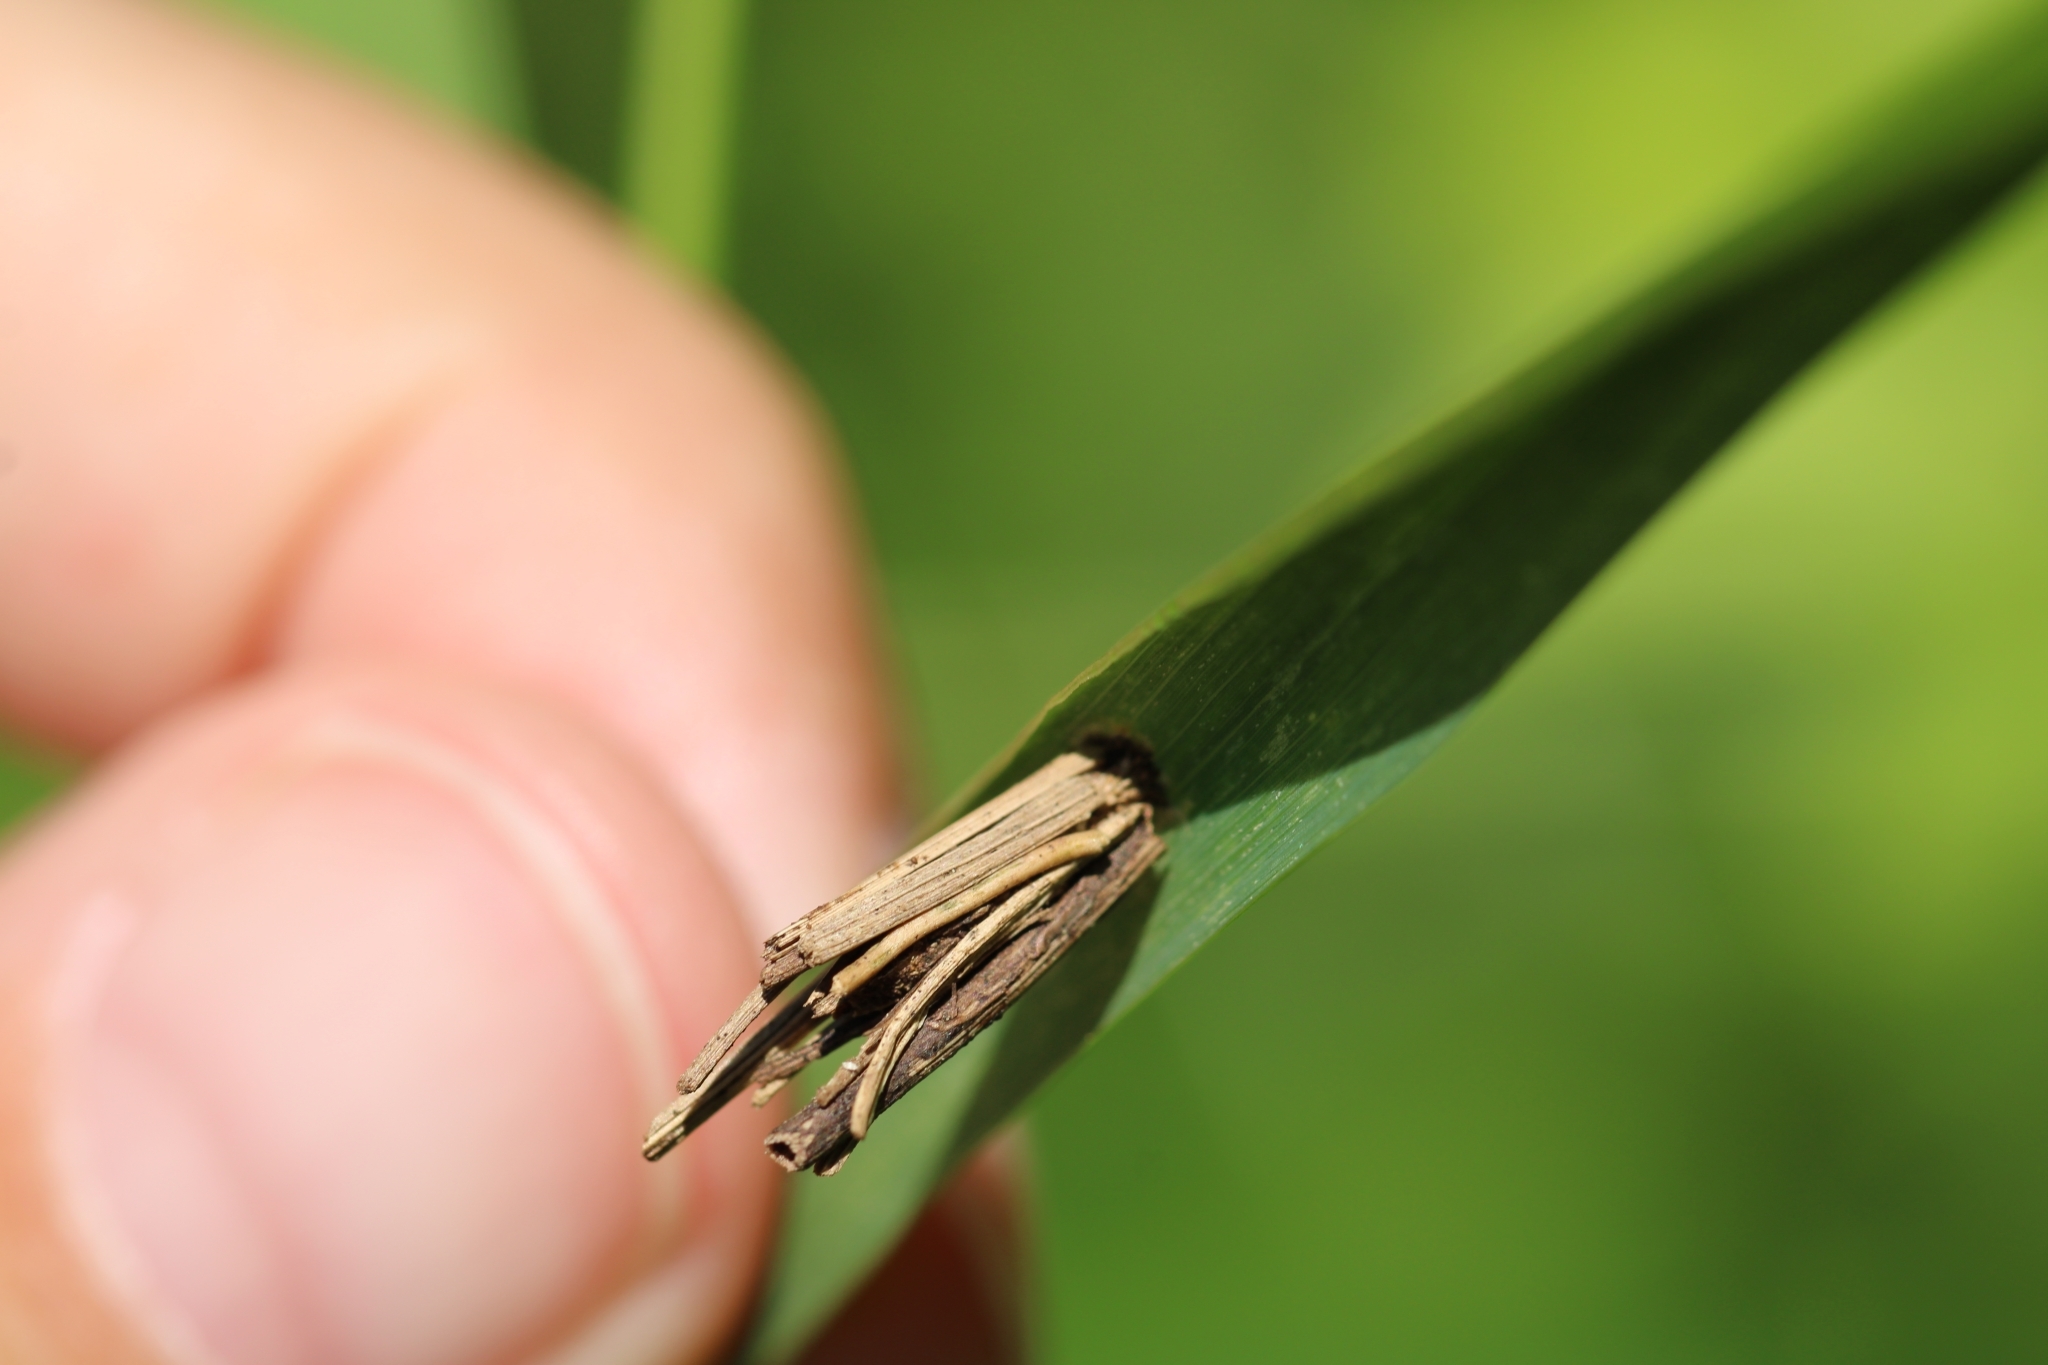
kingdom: Animalia
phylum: Arthropoda
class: Insecta
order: Lepidoptera
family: Psychidae
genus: Psyche
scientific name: Psyche casta
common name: Common sweep
